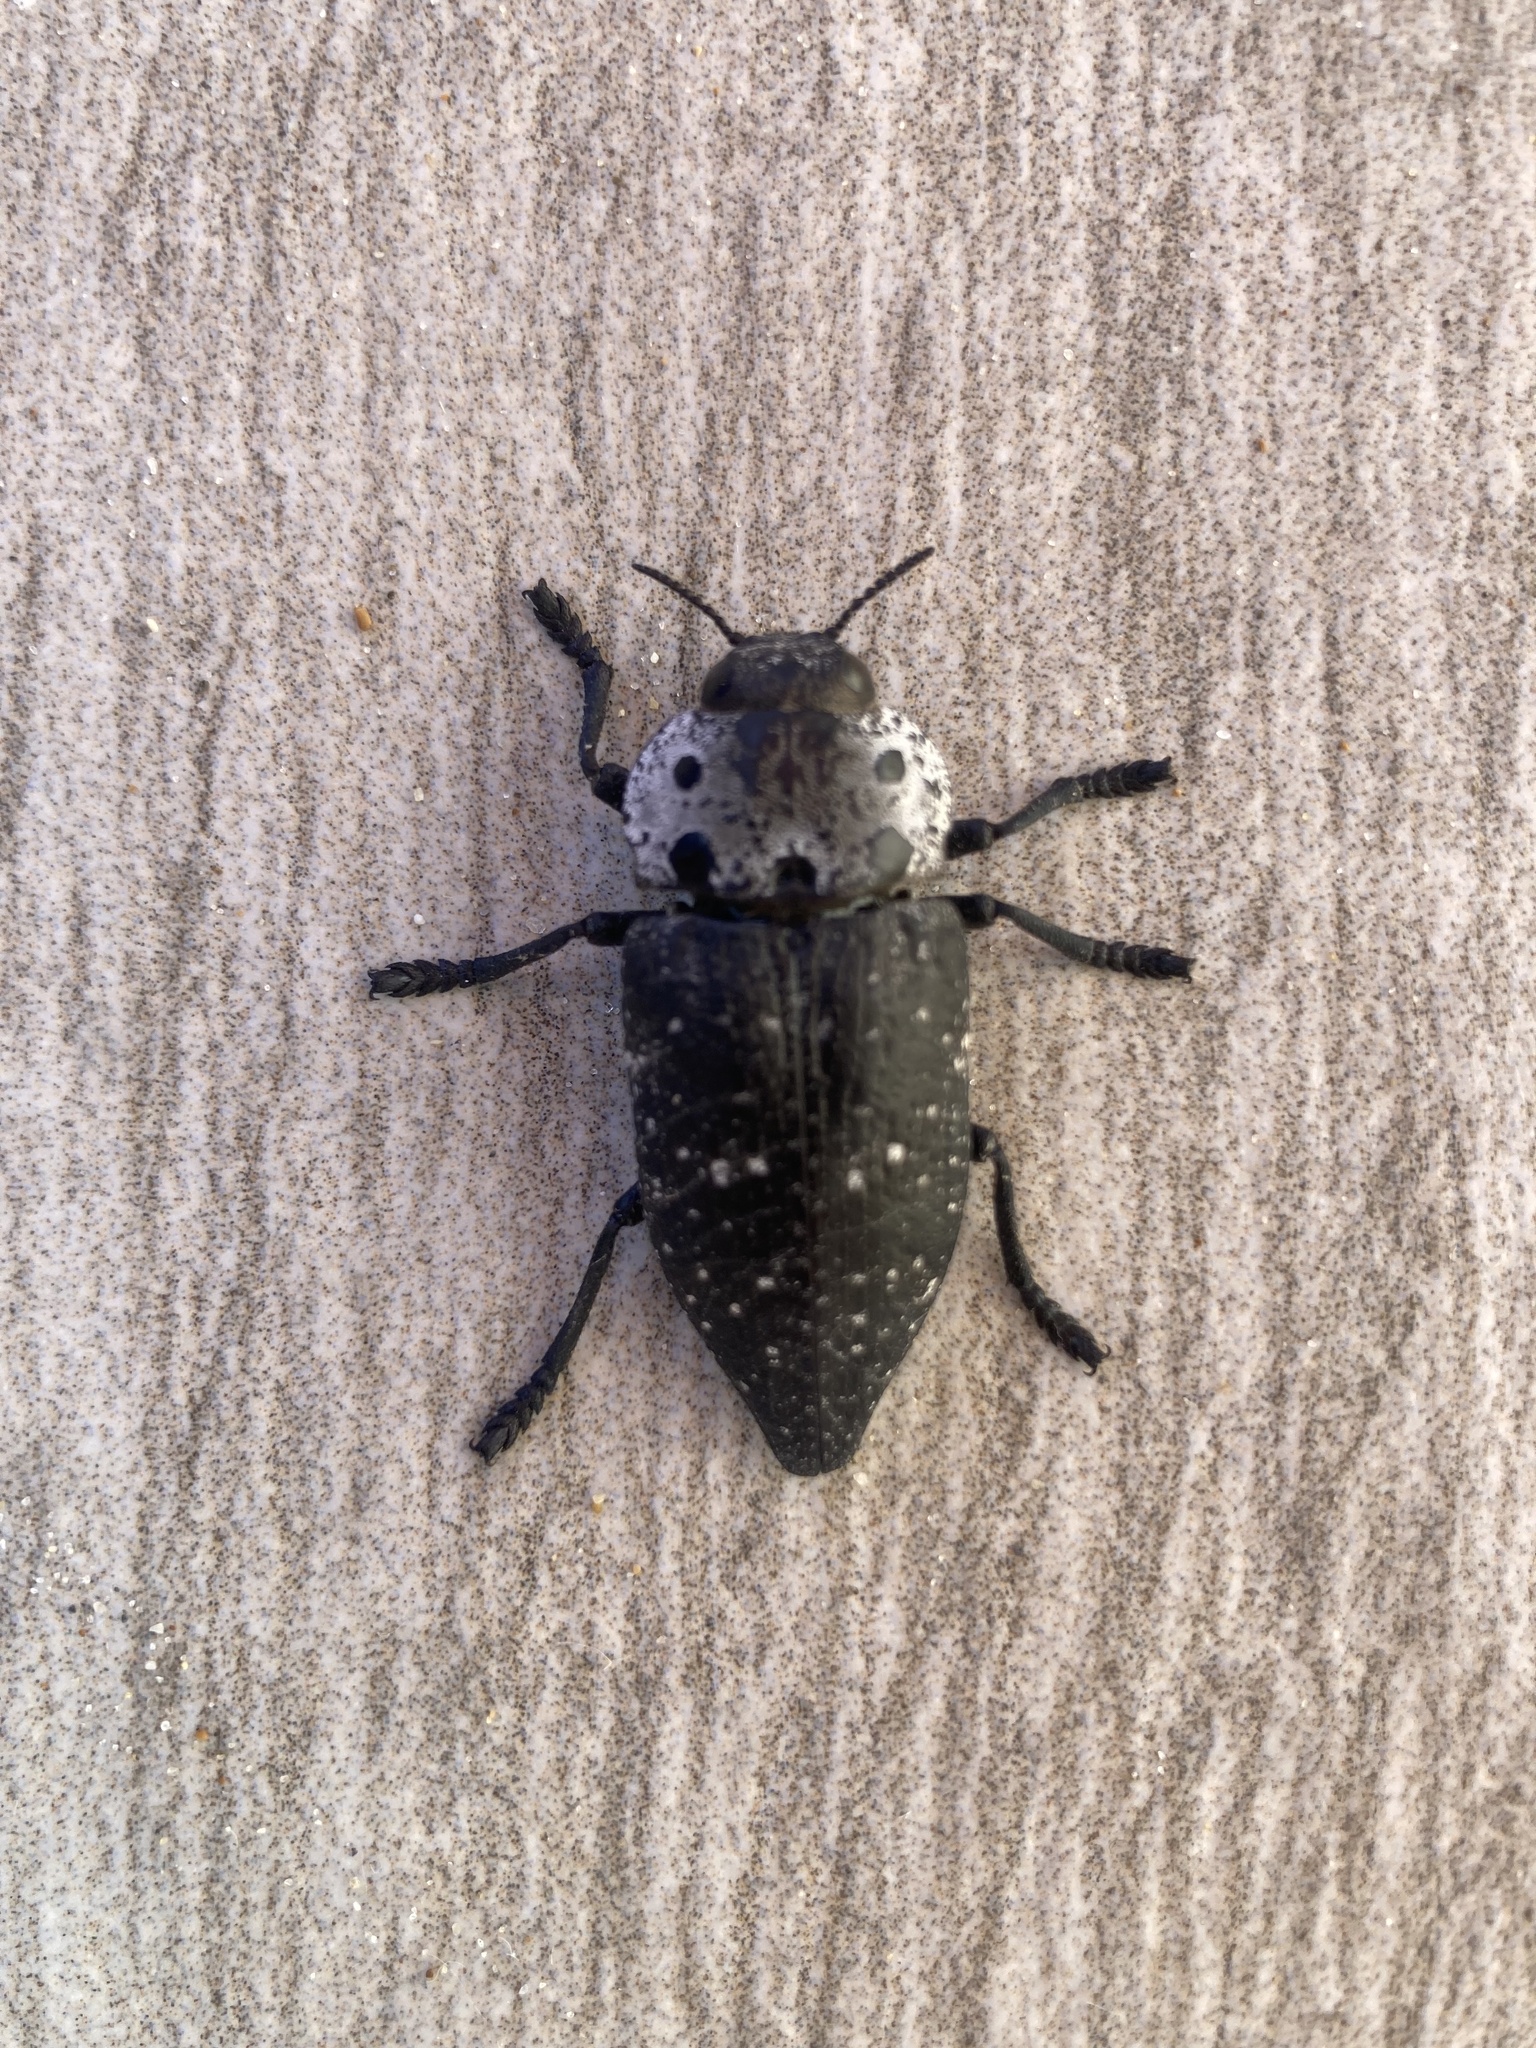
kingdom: Animalia
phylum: Arthropoda
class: Insecta
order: Coleoptera
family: Buprestidae
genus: Capnodis
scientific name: Capnodis tenebrionis
